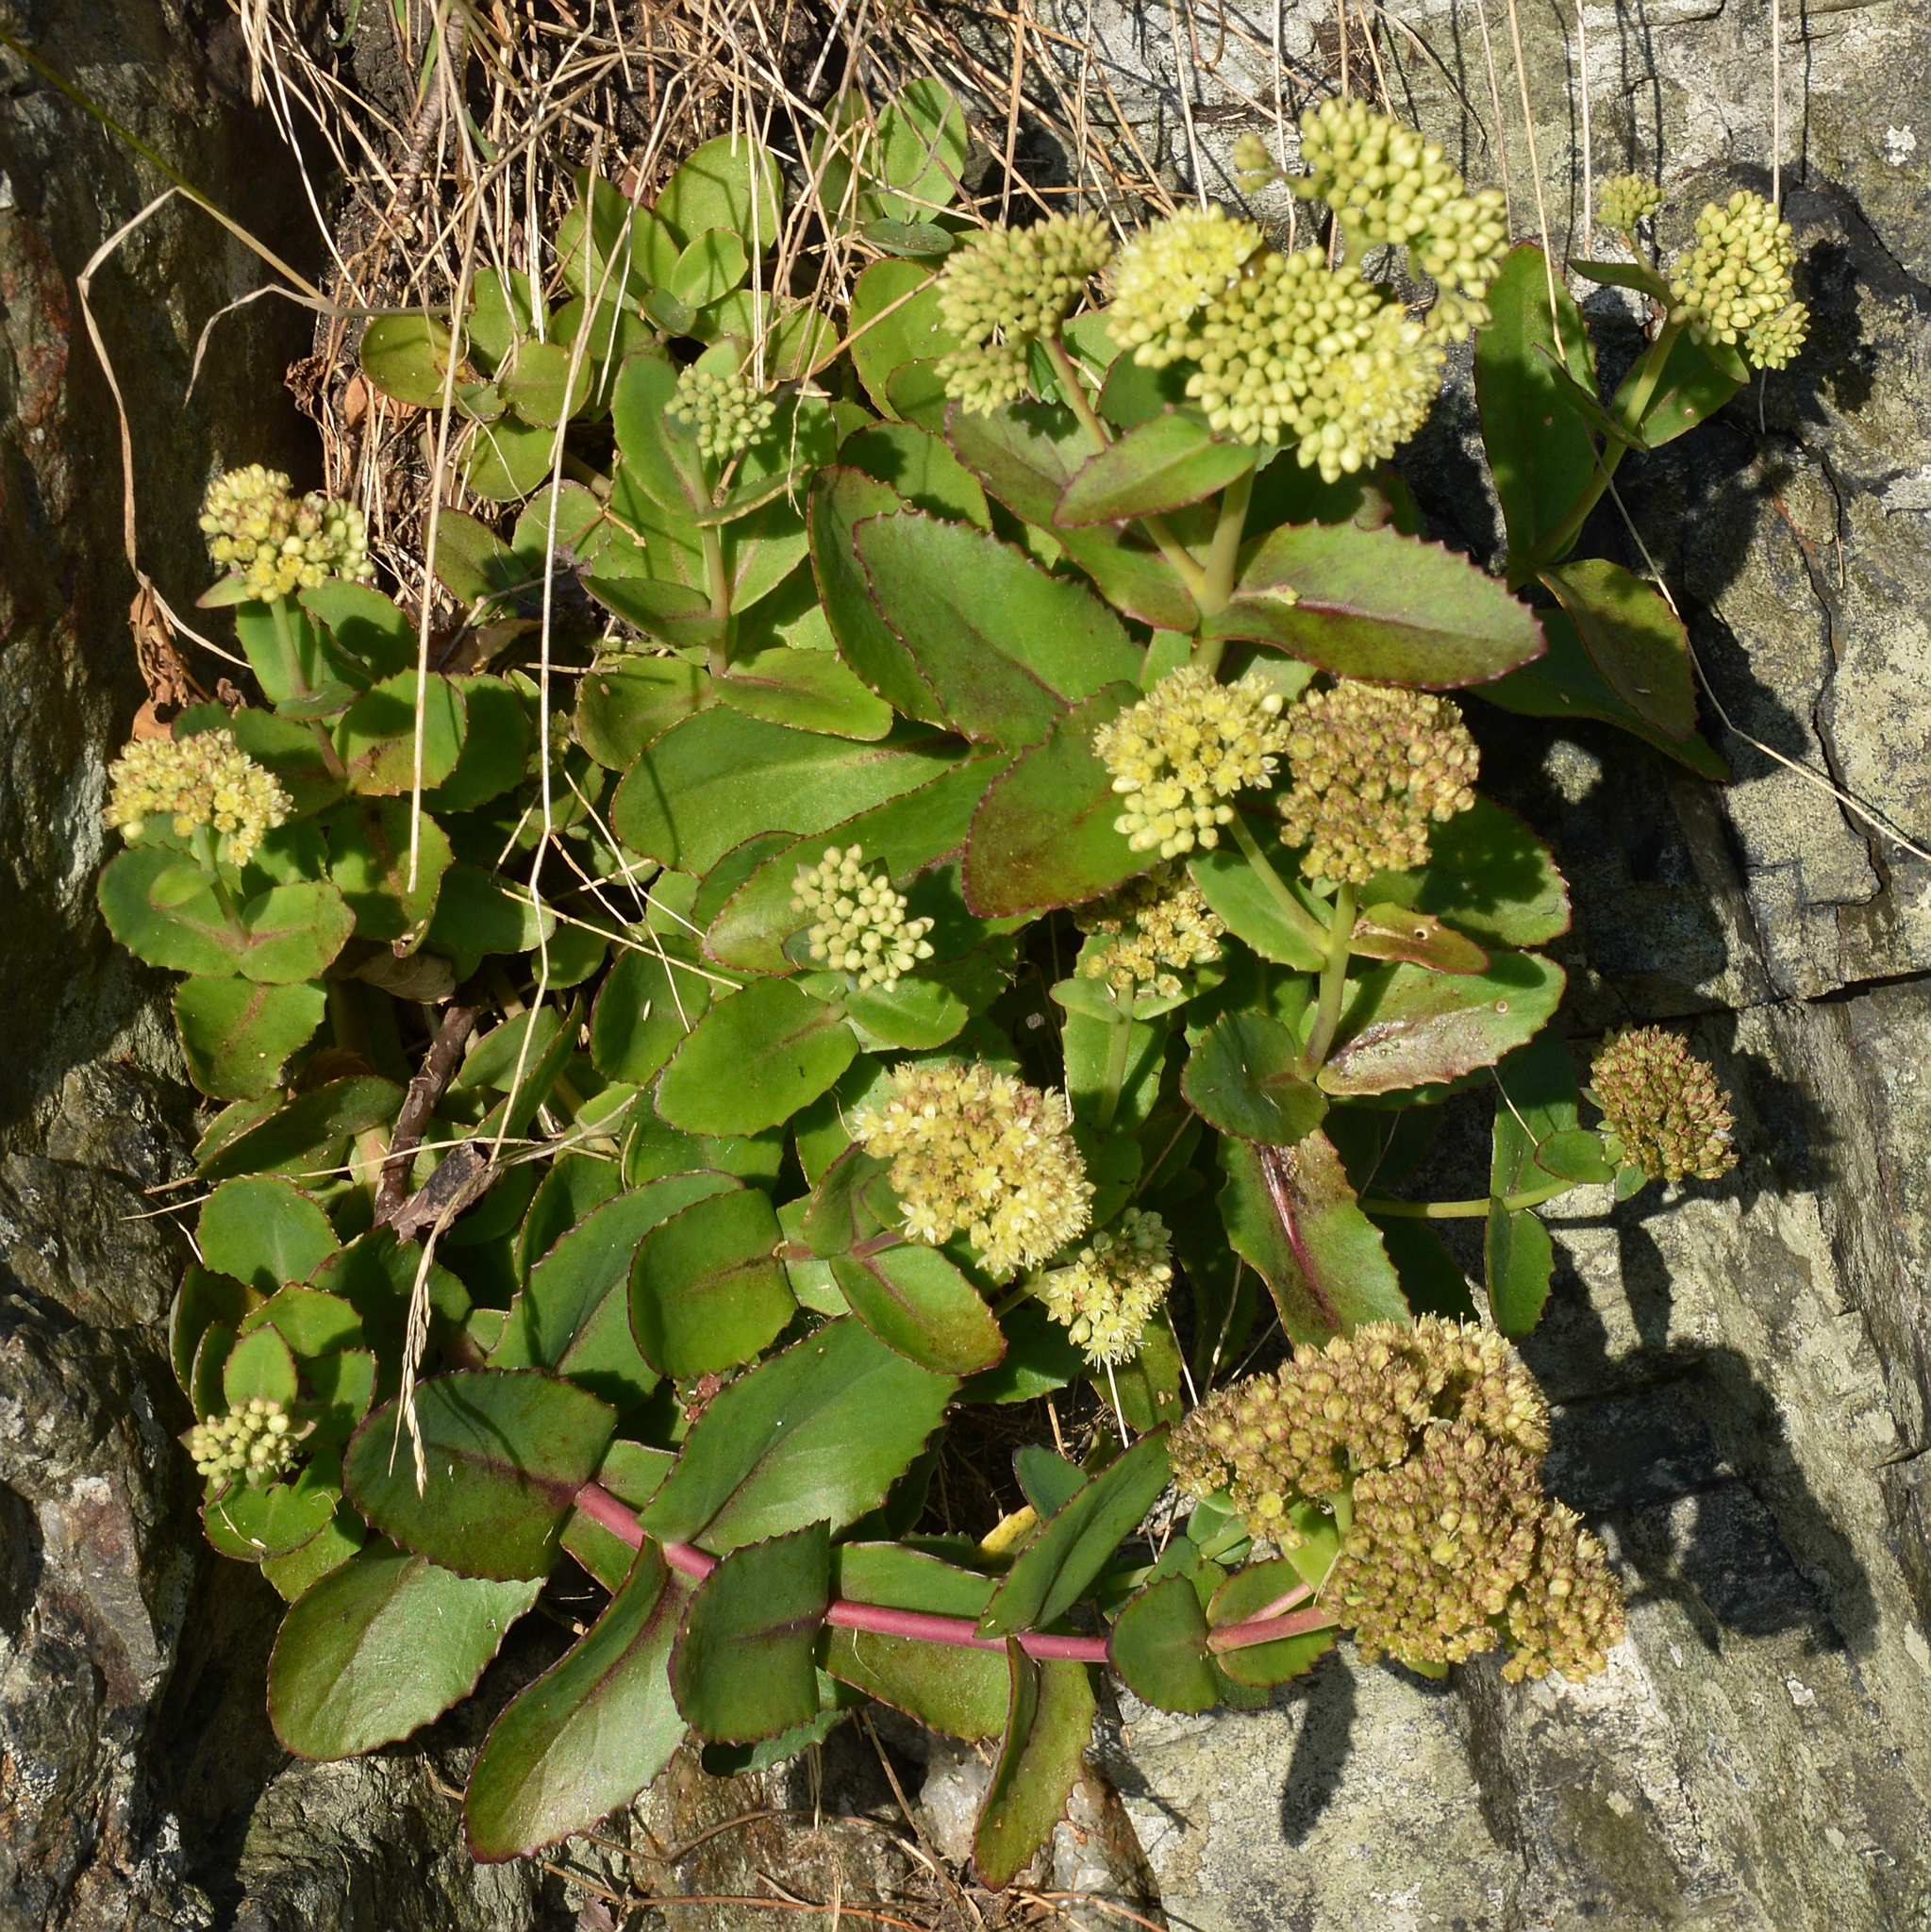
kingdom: Plantae
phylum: Tracheophyta
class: Magnoliopsida
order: Saxifragales
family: Crassulaceae
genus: Hylotelephium
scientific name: Hylotelephium maximum
